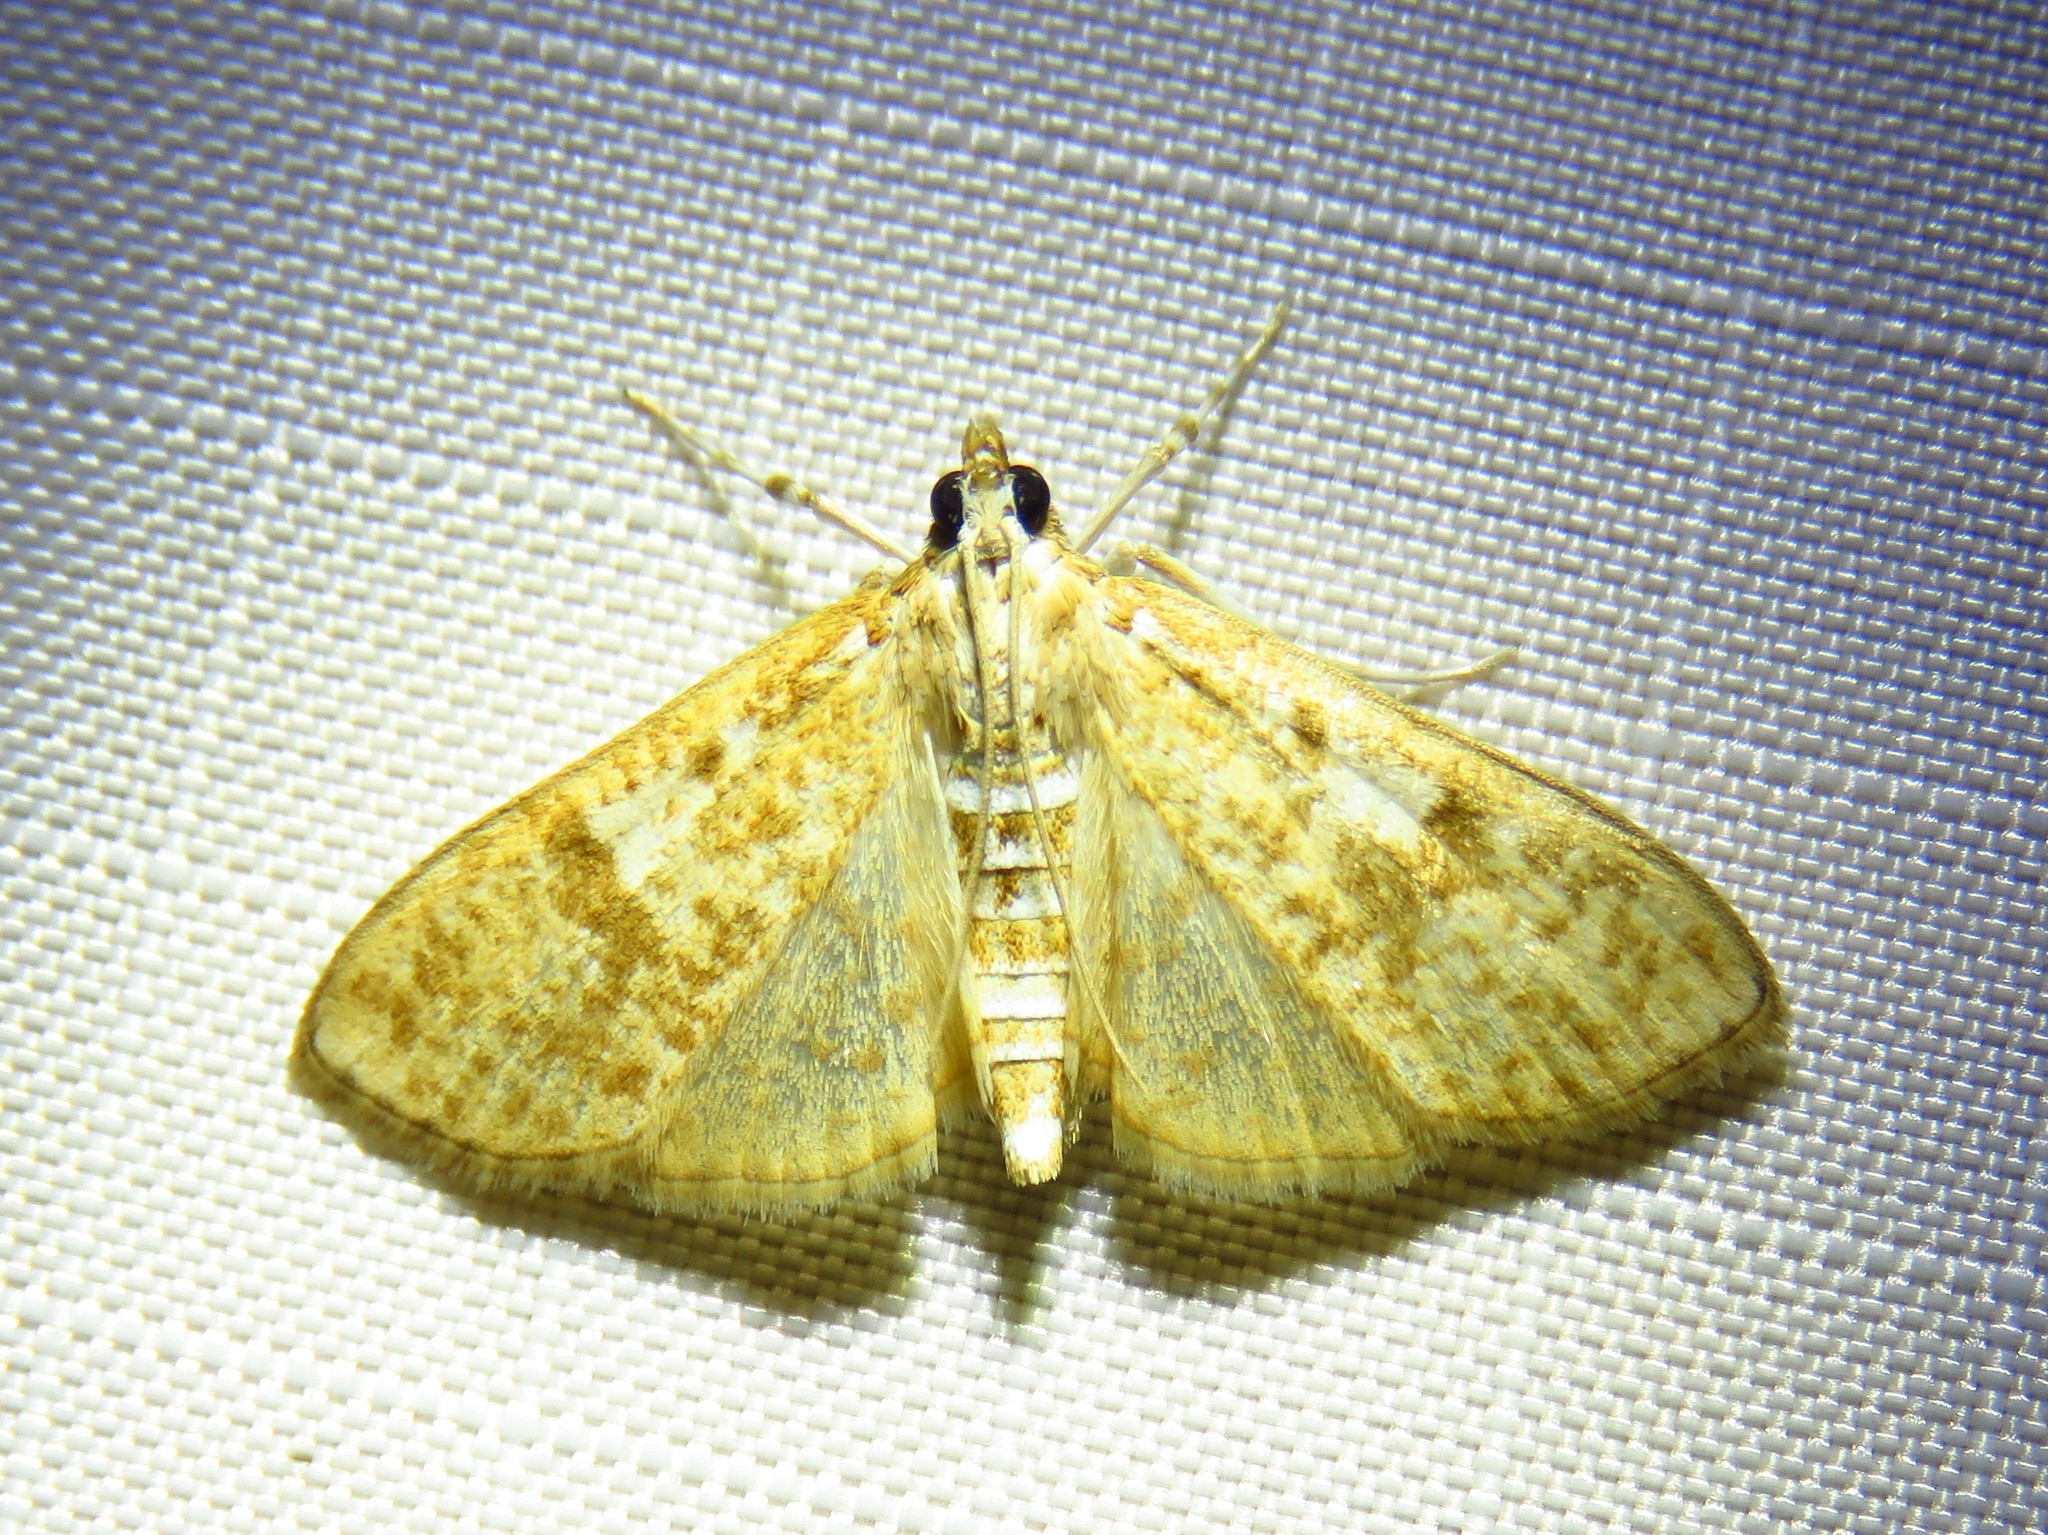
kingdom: Animalia
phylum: Arthropoda
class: Insecta
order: Lepidoptera
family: Crambidae
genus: Palpita
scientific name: Palpita freemanalis
